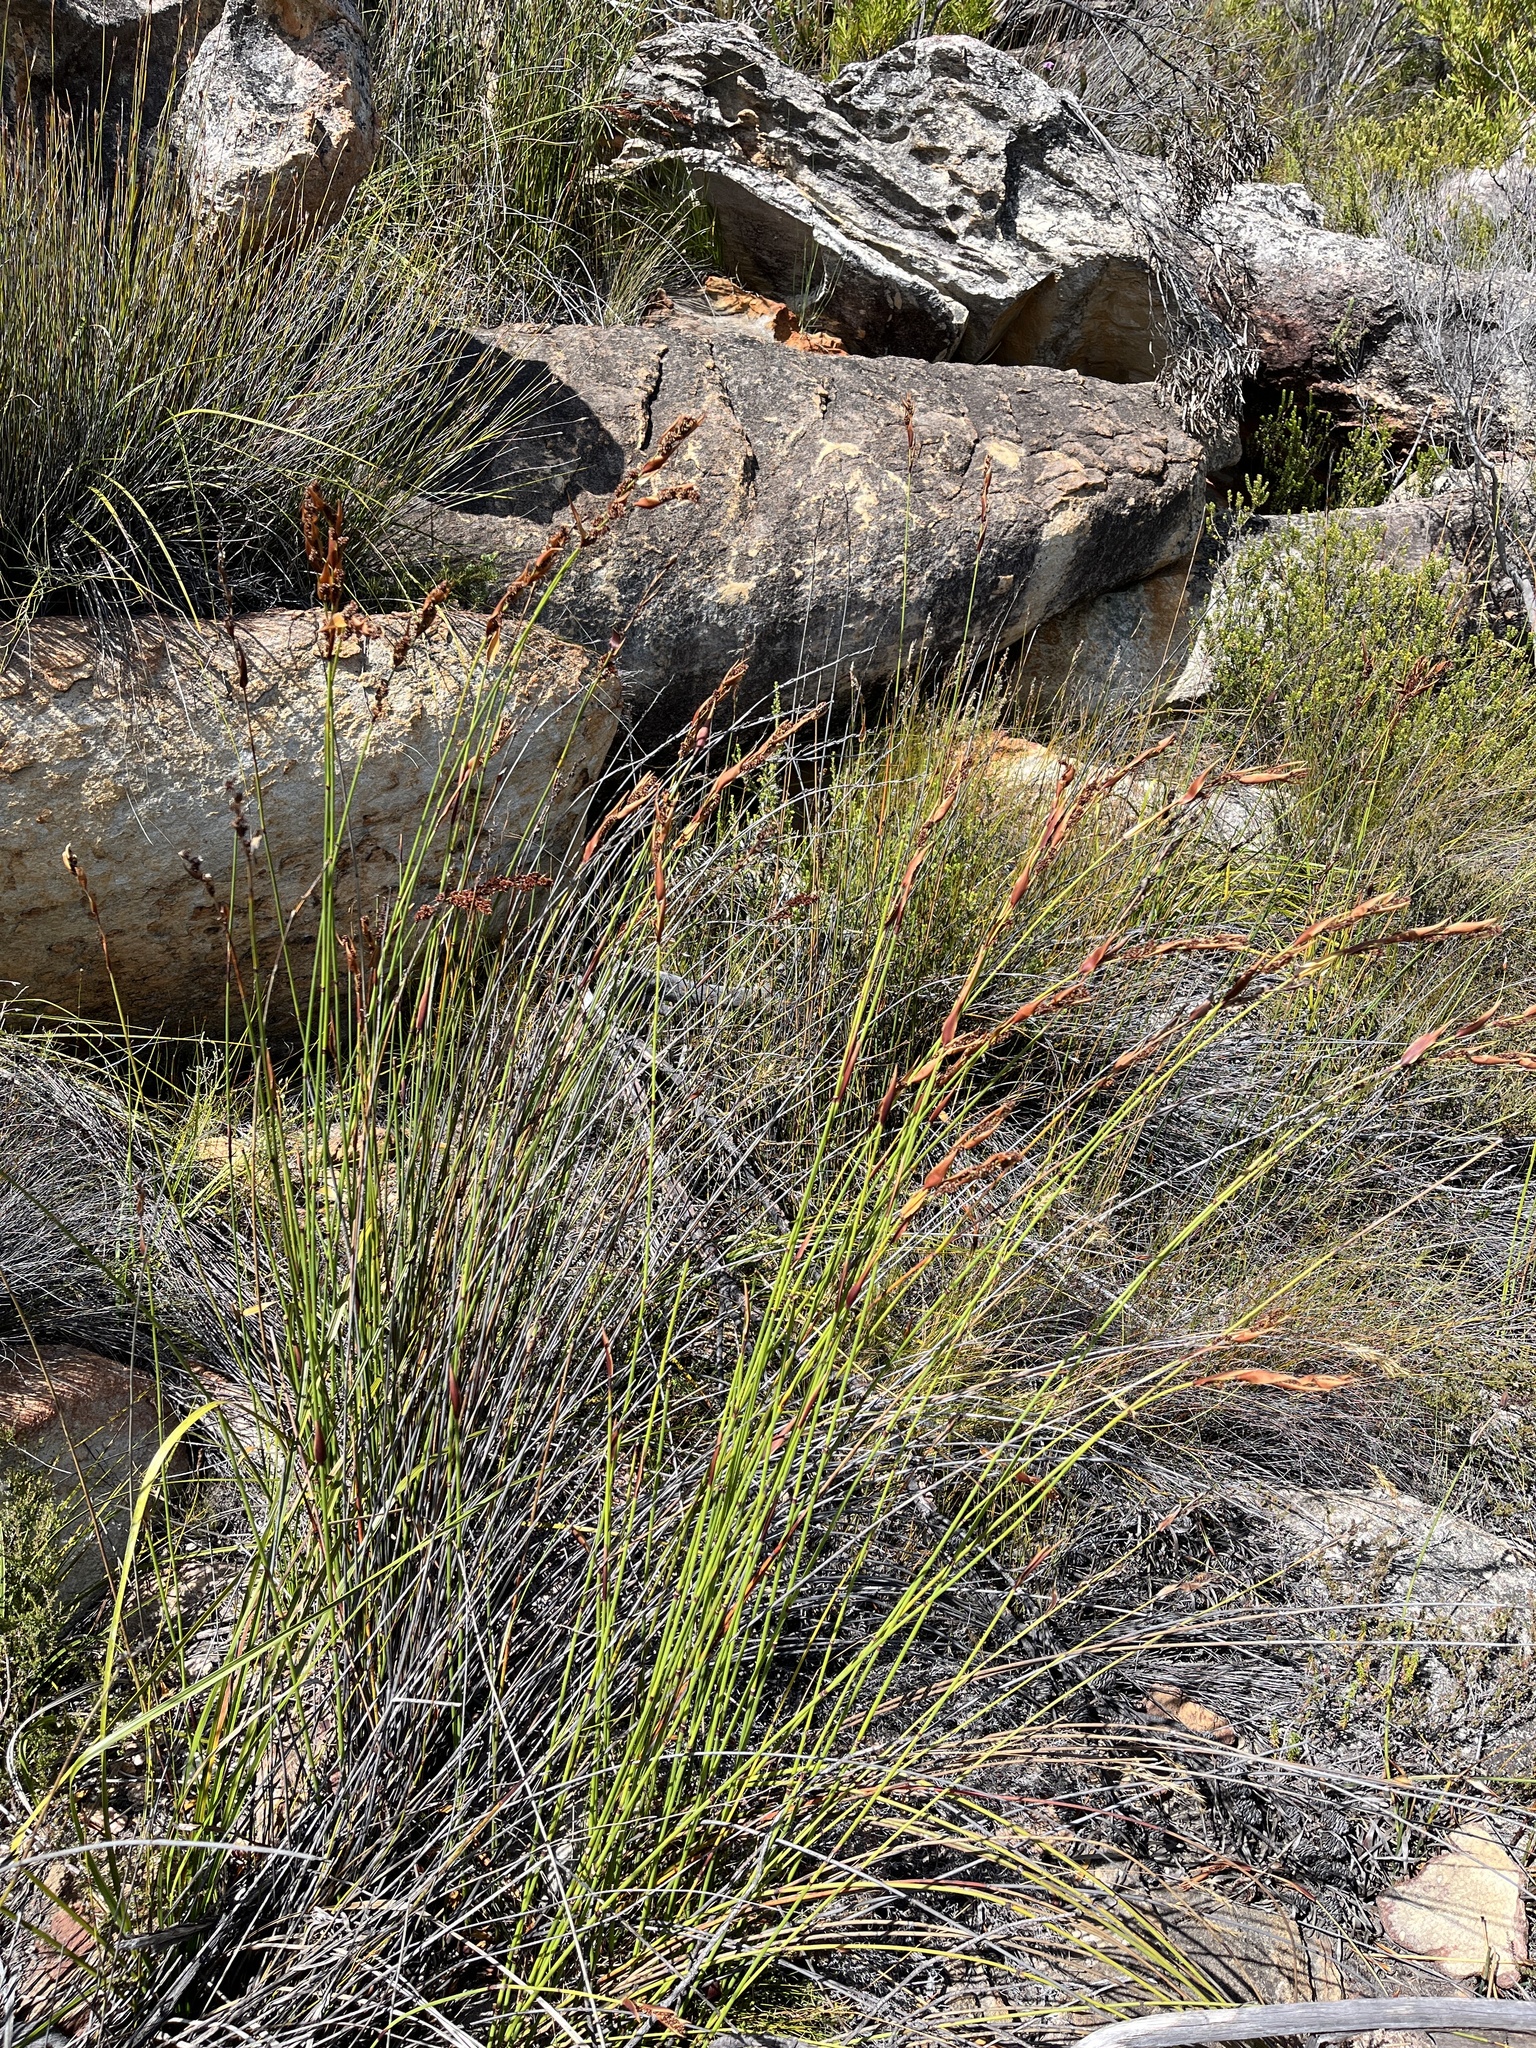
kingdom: Plantae
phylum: Tracheophyta
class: Liliopsida
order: Poales
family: Restionaceae
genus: Elegia
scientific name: Elegia galpinii
